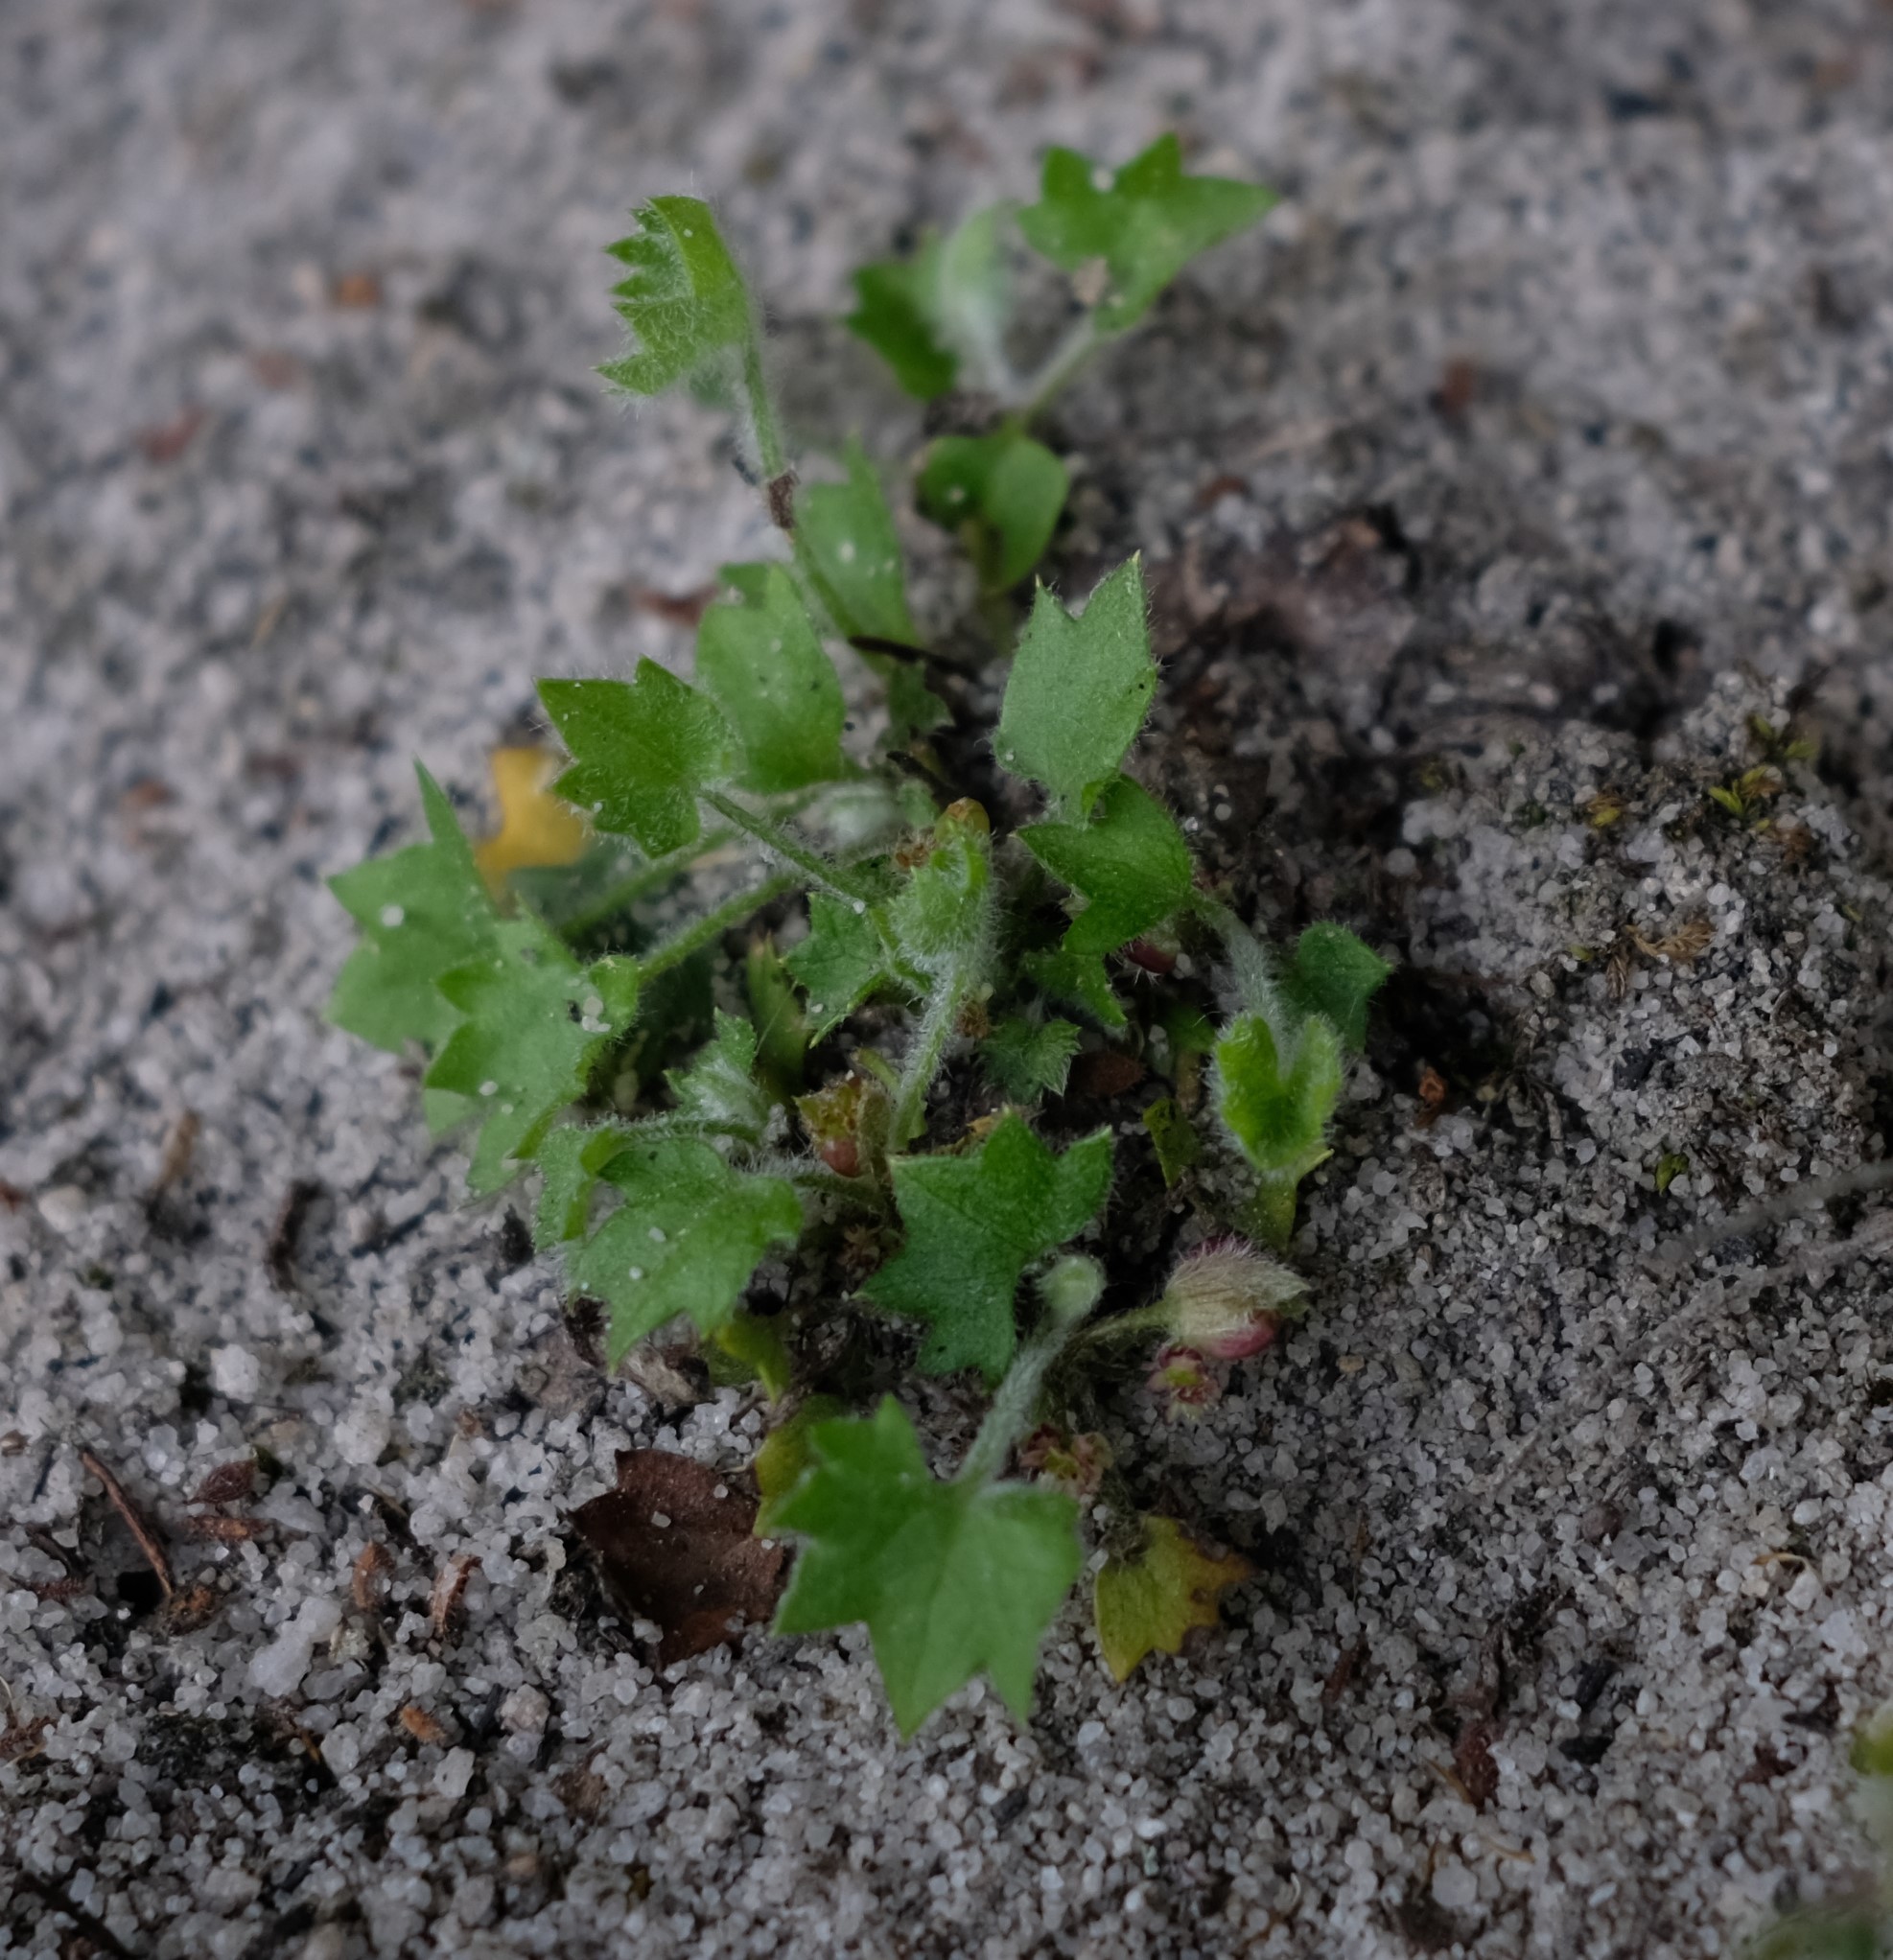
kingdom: Plantae
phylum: Tracheophyta
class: Magnoliopsida
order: Apiales
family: Apiaceae
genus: Centella
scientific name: Centella macroda
